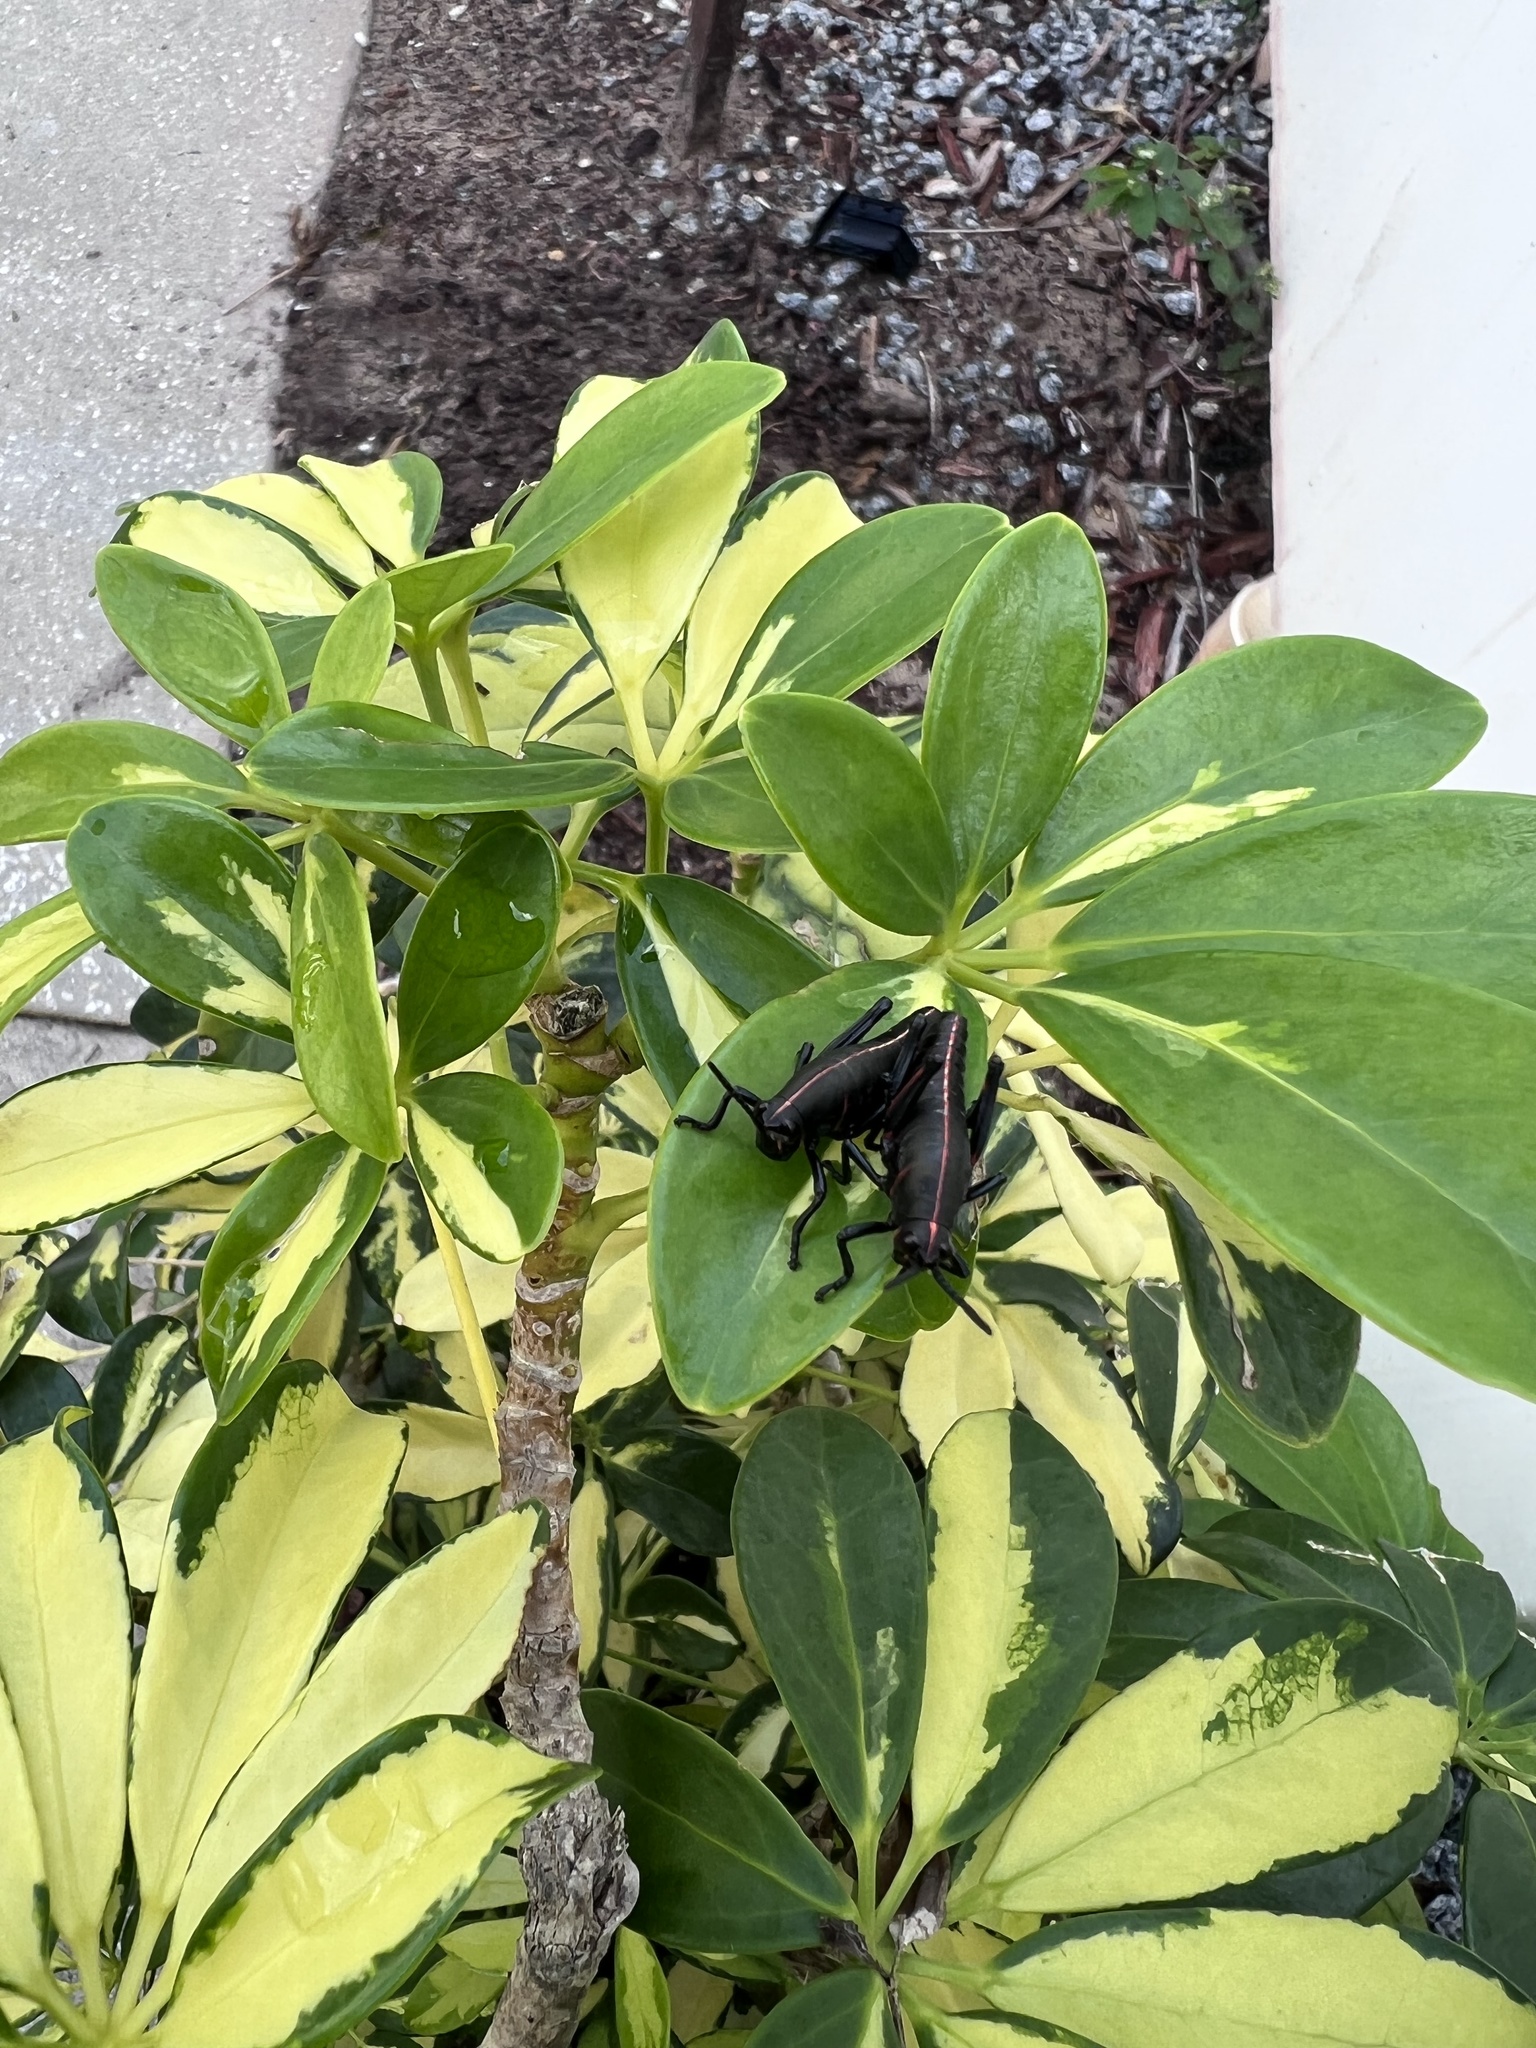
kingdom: Animalia
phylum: Arthropoda
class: Insecta
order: Orthoptera
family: Romaleidae
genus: Romalea
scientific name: Romalea microptera
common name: Eastern lubber grasshopper
